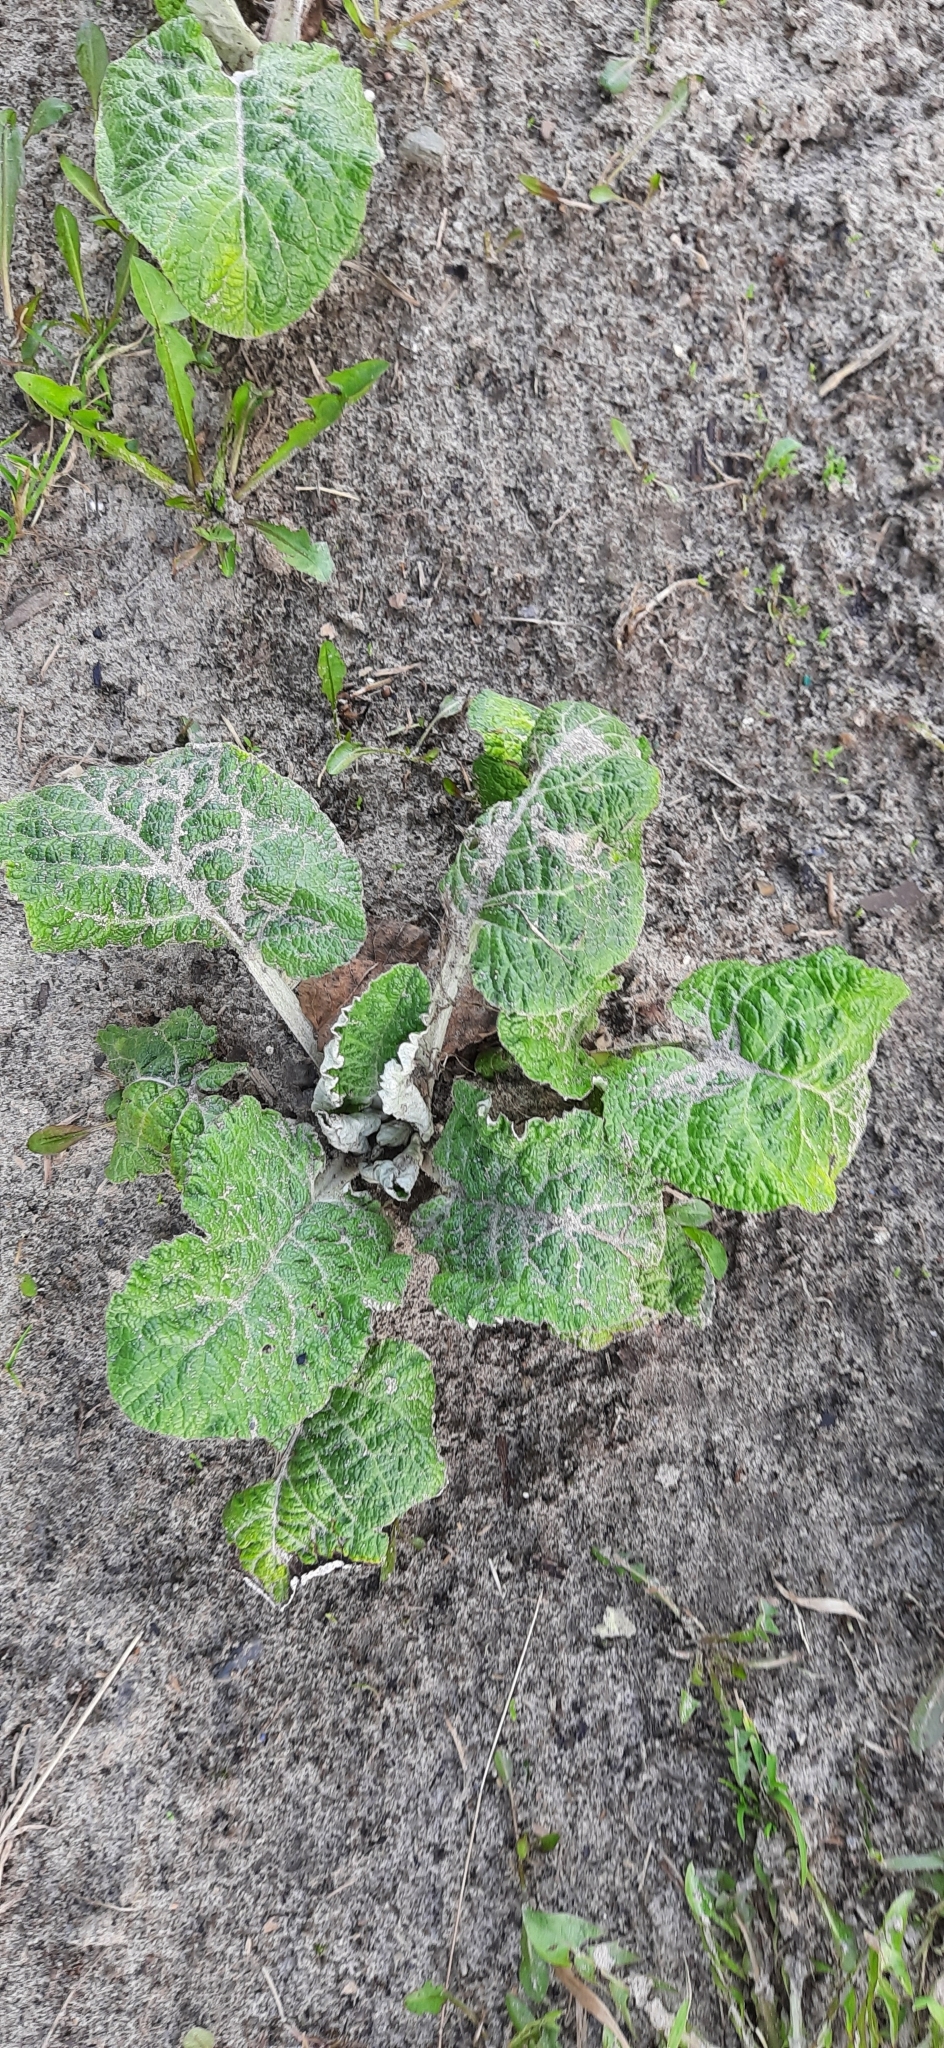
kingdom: Plantae
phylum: Tracheophyta
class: Magnoliopsida
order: Asterales
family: Asteraceae
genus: Arctium
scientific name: Arctium tomentosum
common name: Woolly burdock
